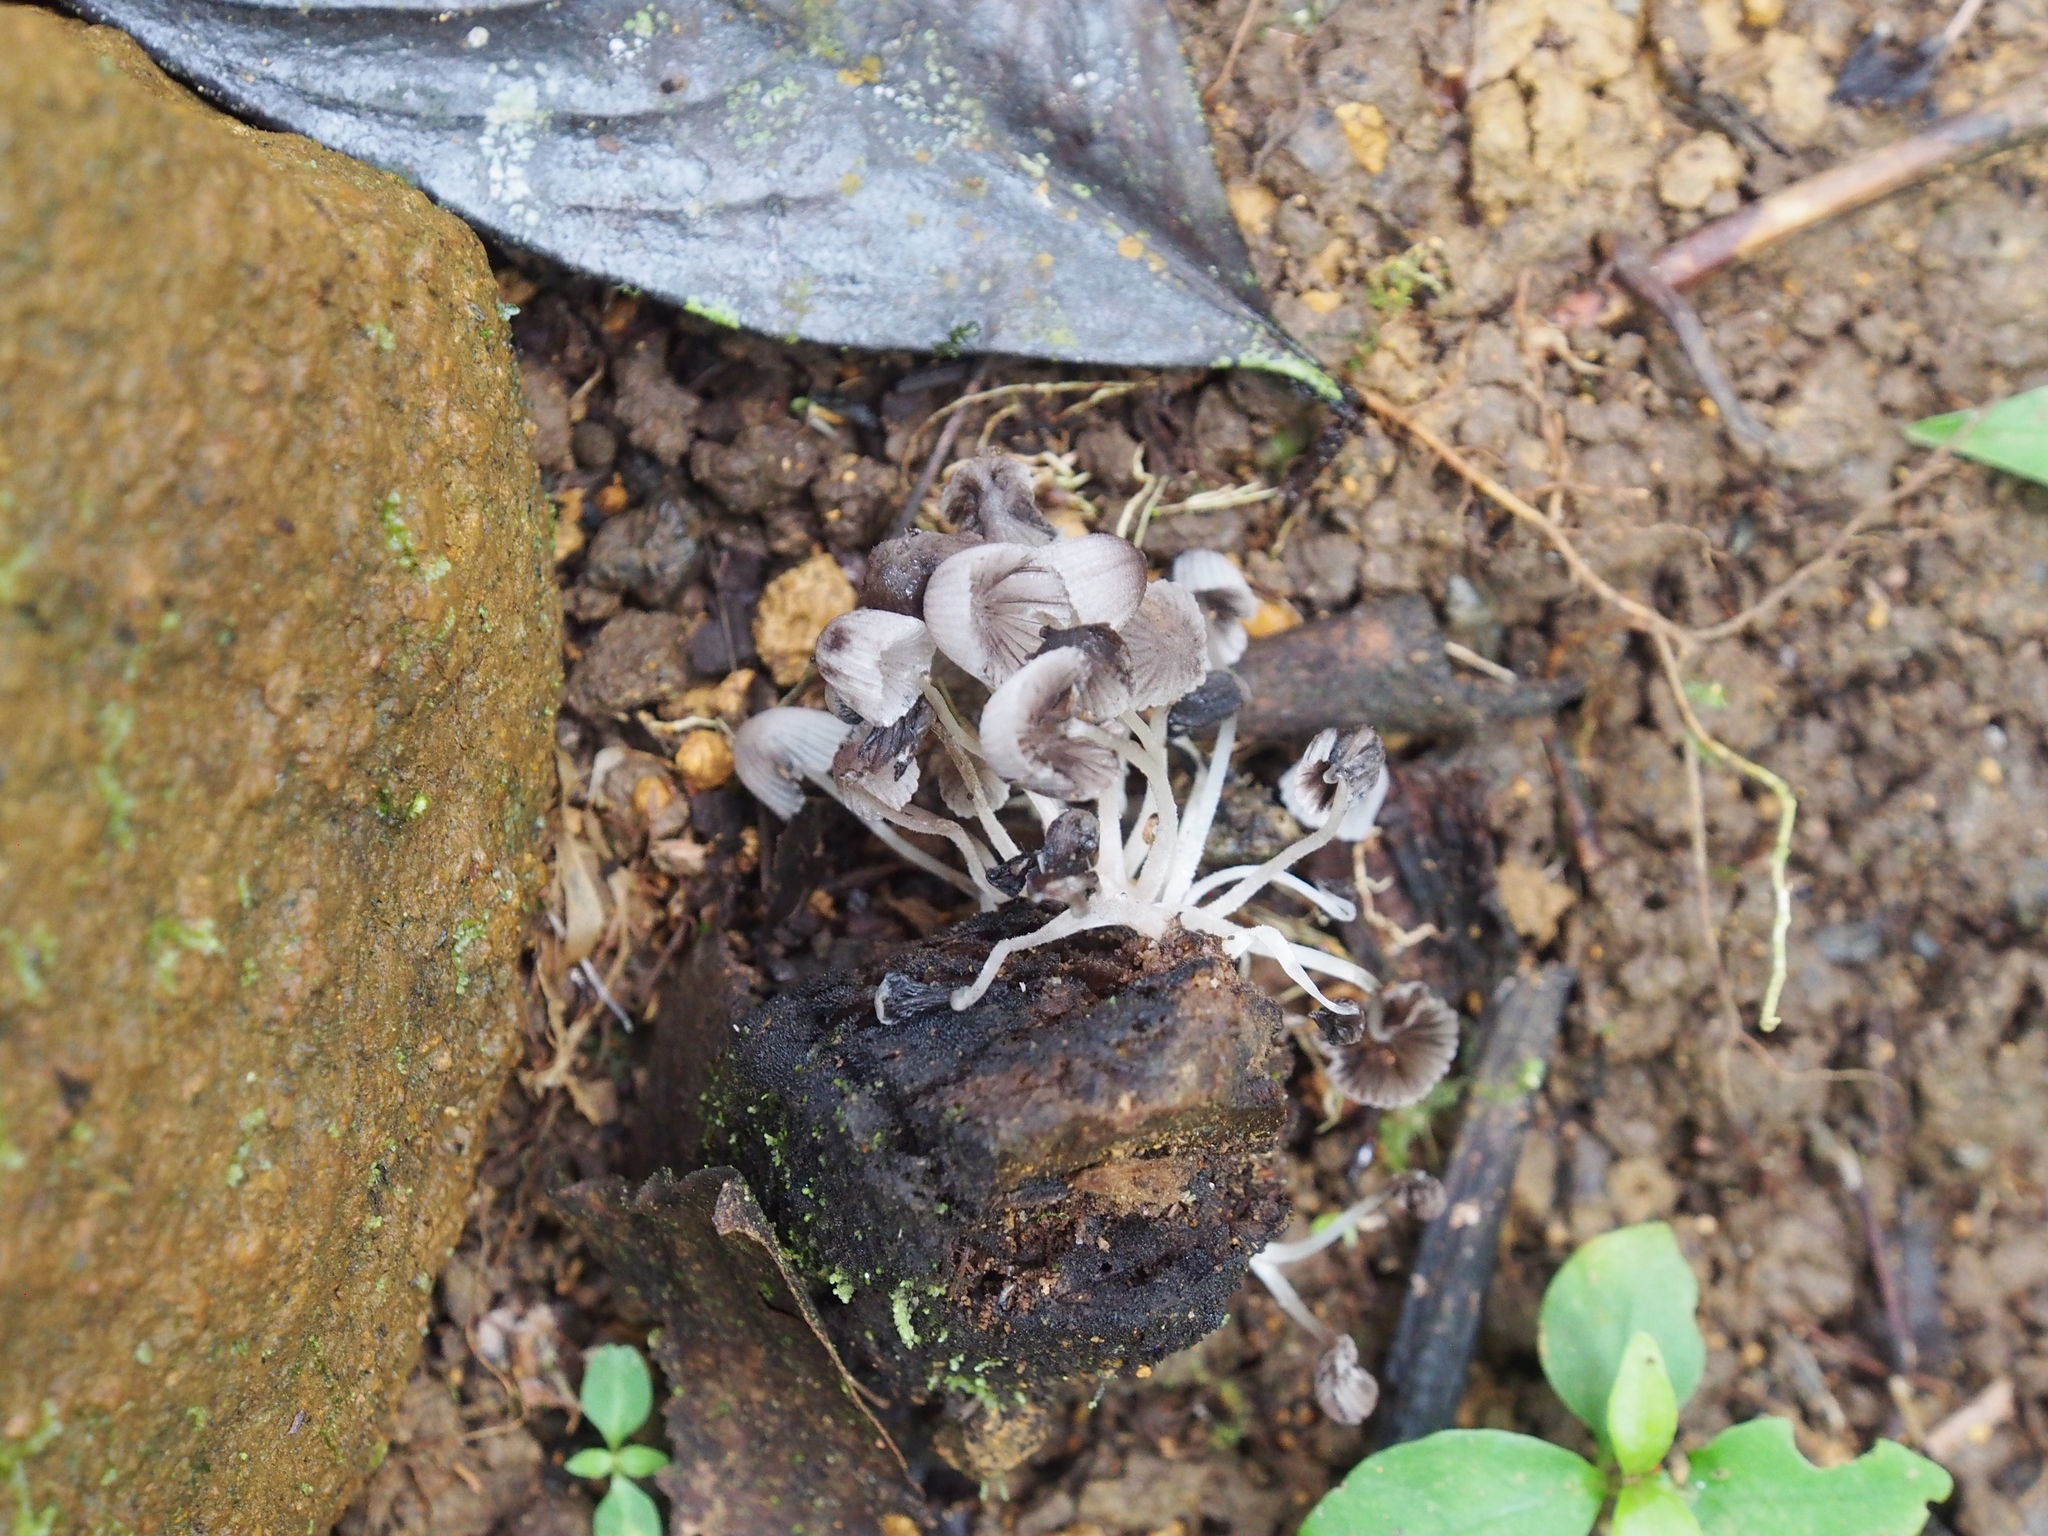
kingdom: Fungi
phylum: Basidiomycota
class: Agaricomycetes
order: Agaricales
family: Psathyrellaceae
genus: Coprinellus
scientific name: Coprinellus disseminatus
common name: Fairies' bonnets
